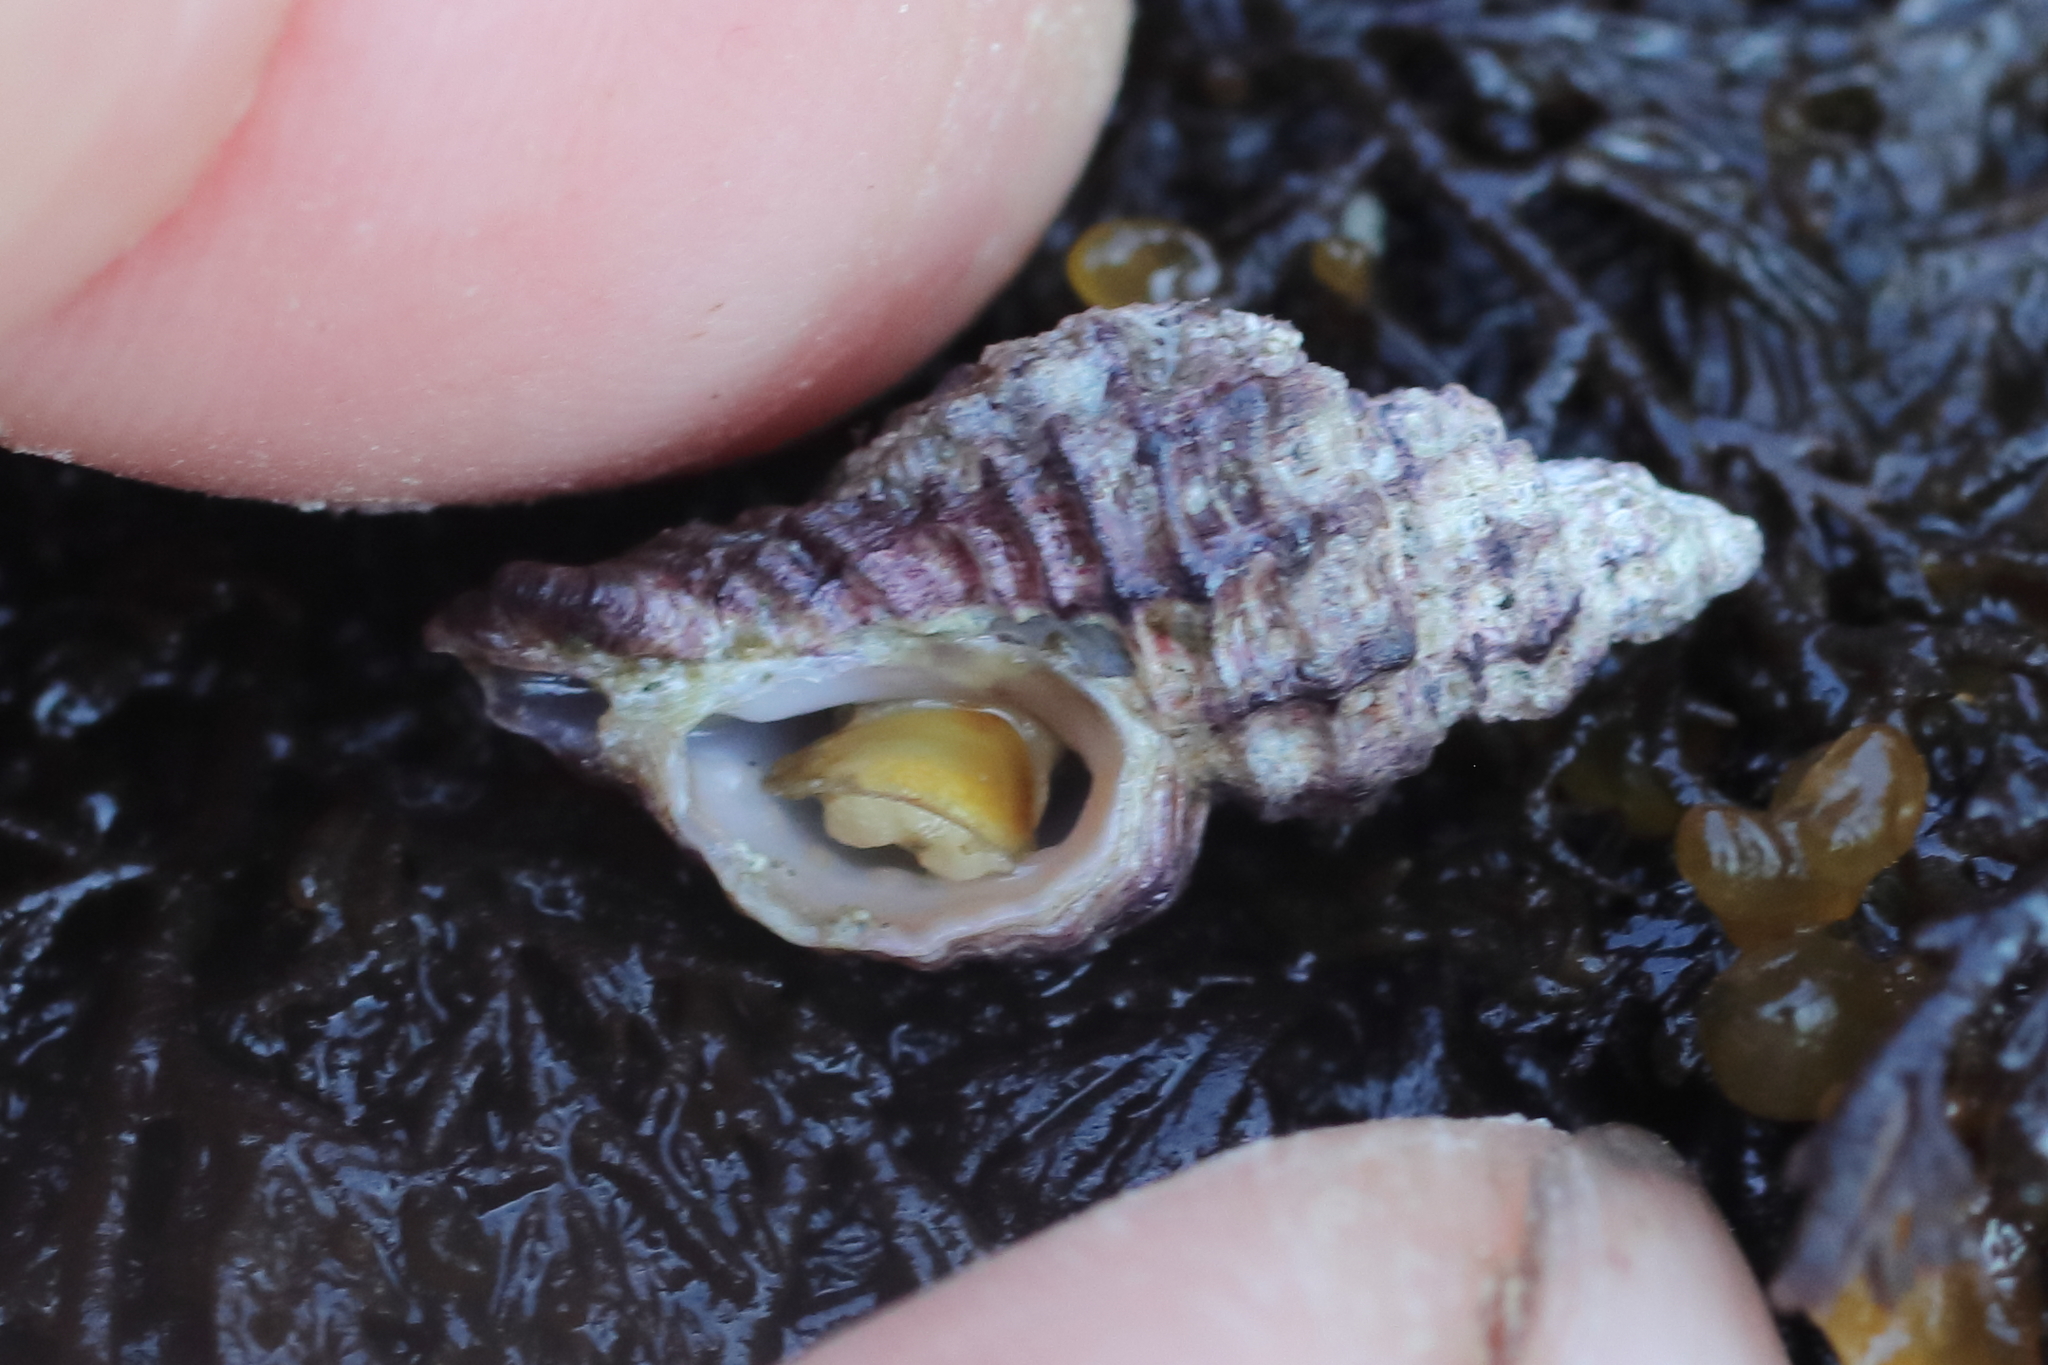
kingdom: Animalia
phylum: Mollusca
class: Gastropoda
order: Neogastropoda
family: Muricidae
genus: Paciocinebrina
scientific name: Paciocinebrina interfossa
